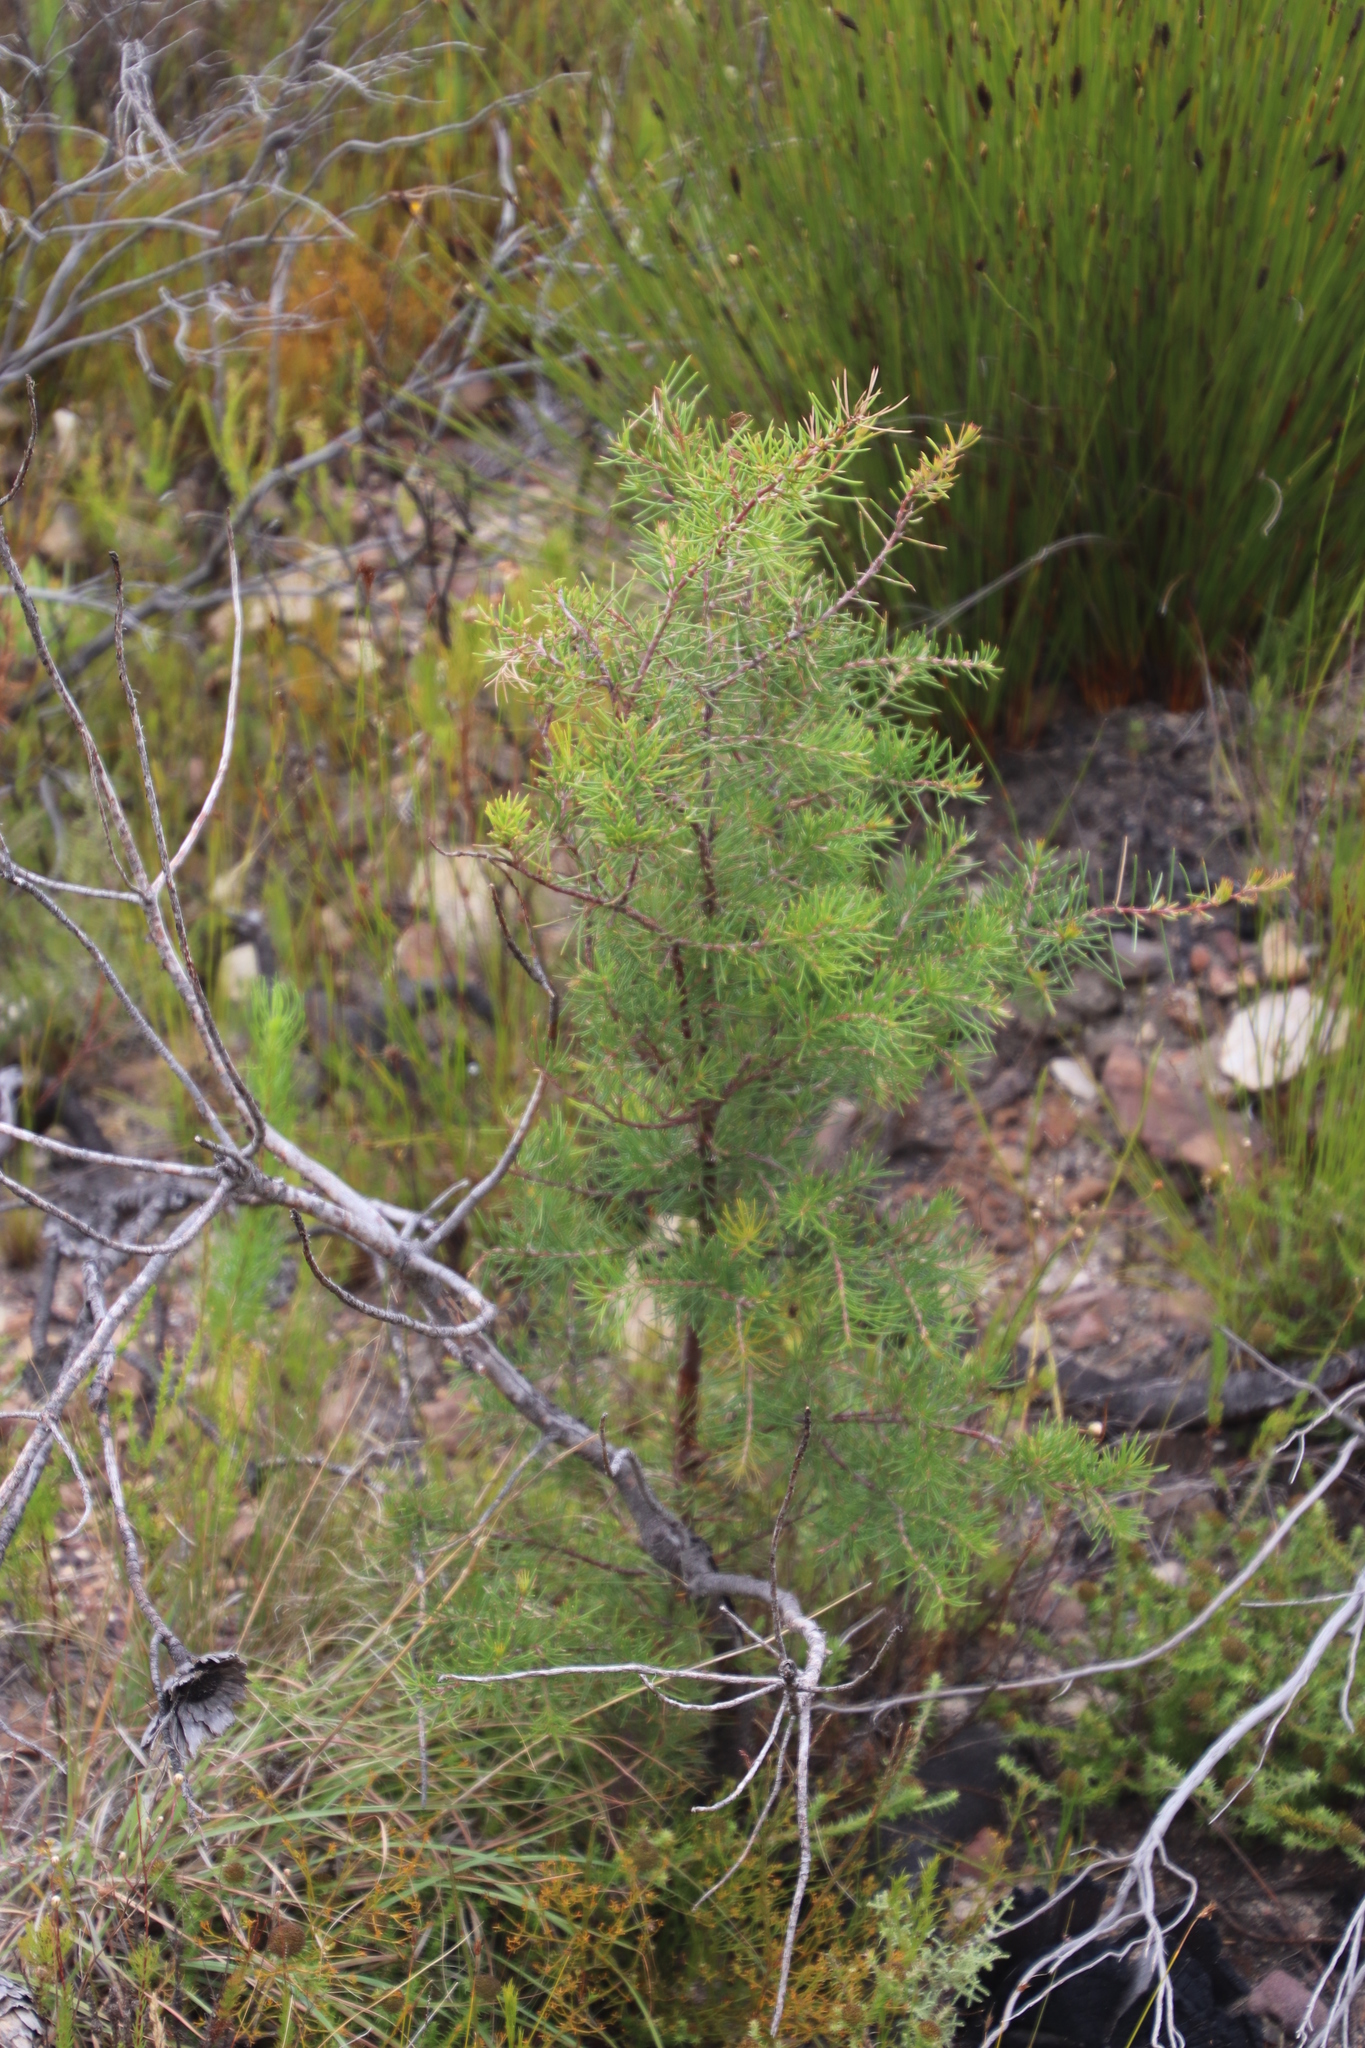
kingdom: Plantae
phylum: Tracheophyta
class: Magnoliopsida
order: Proteales
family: Proteaceae
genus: Hakea
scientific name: Hakea sericea
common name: Needle bush
